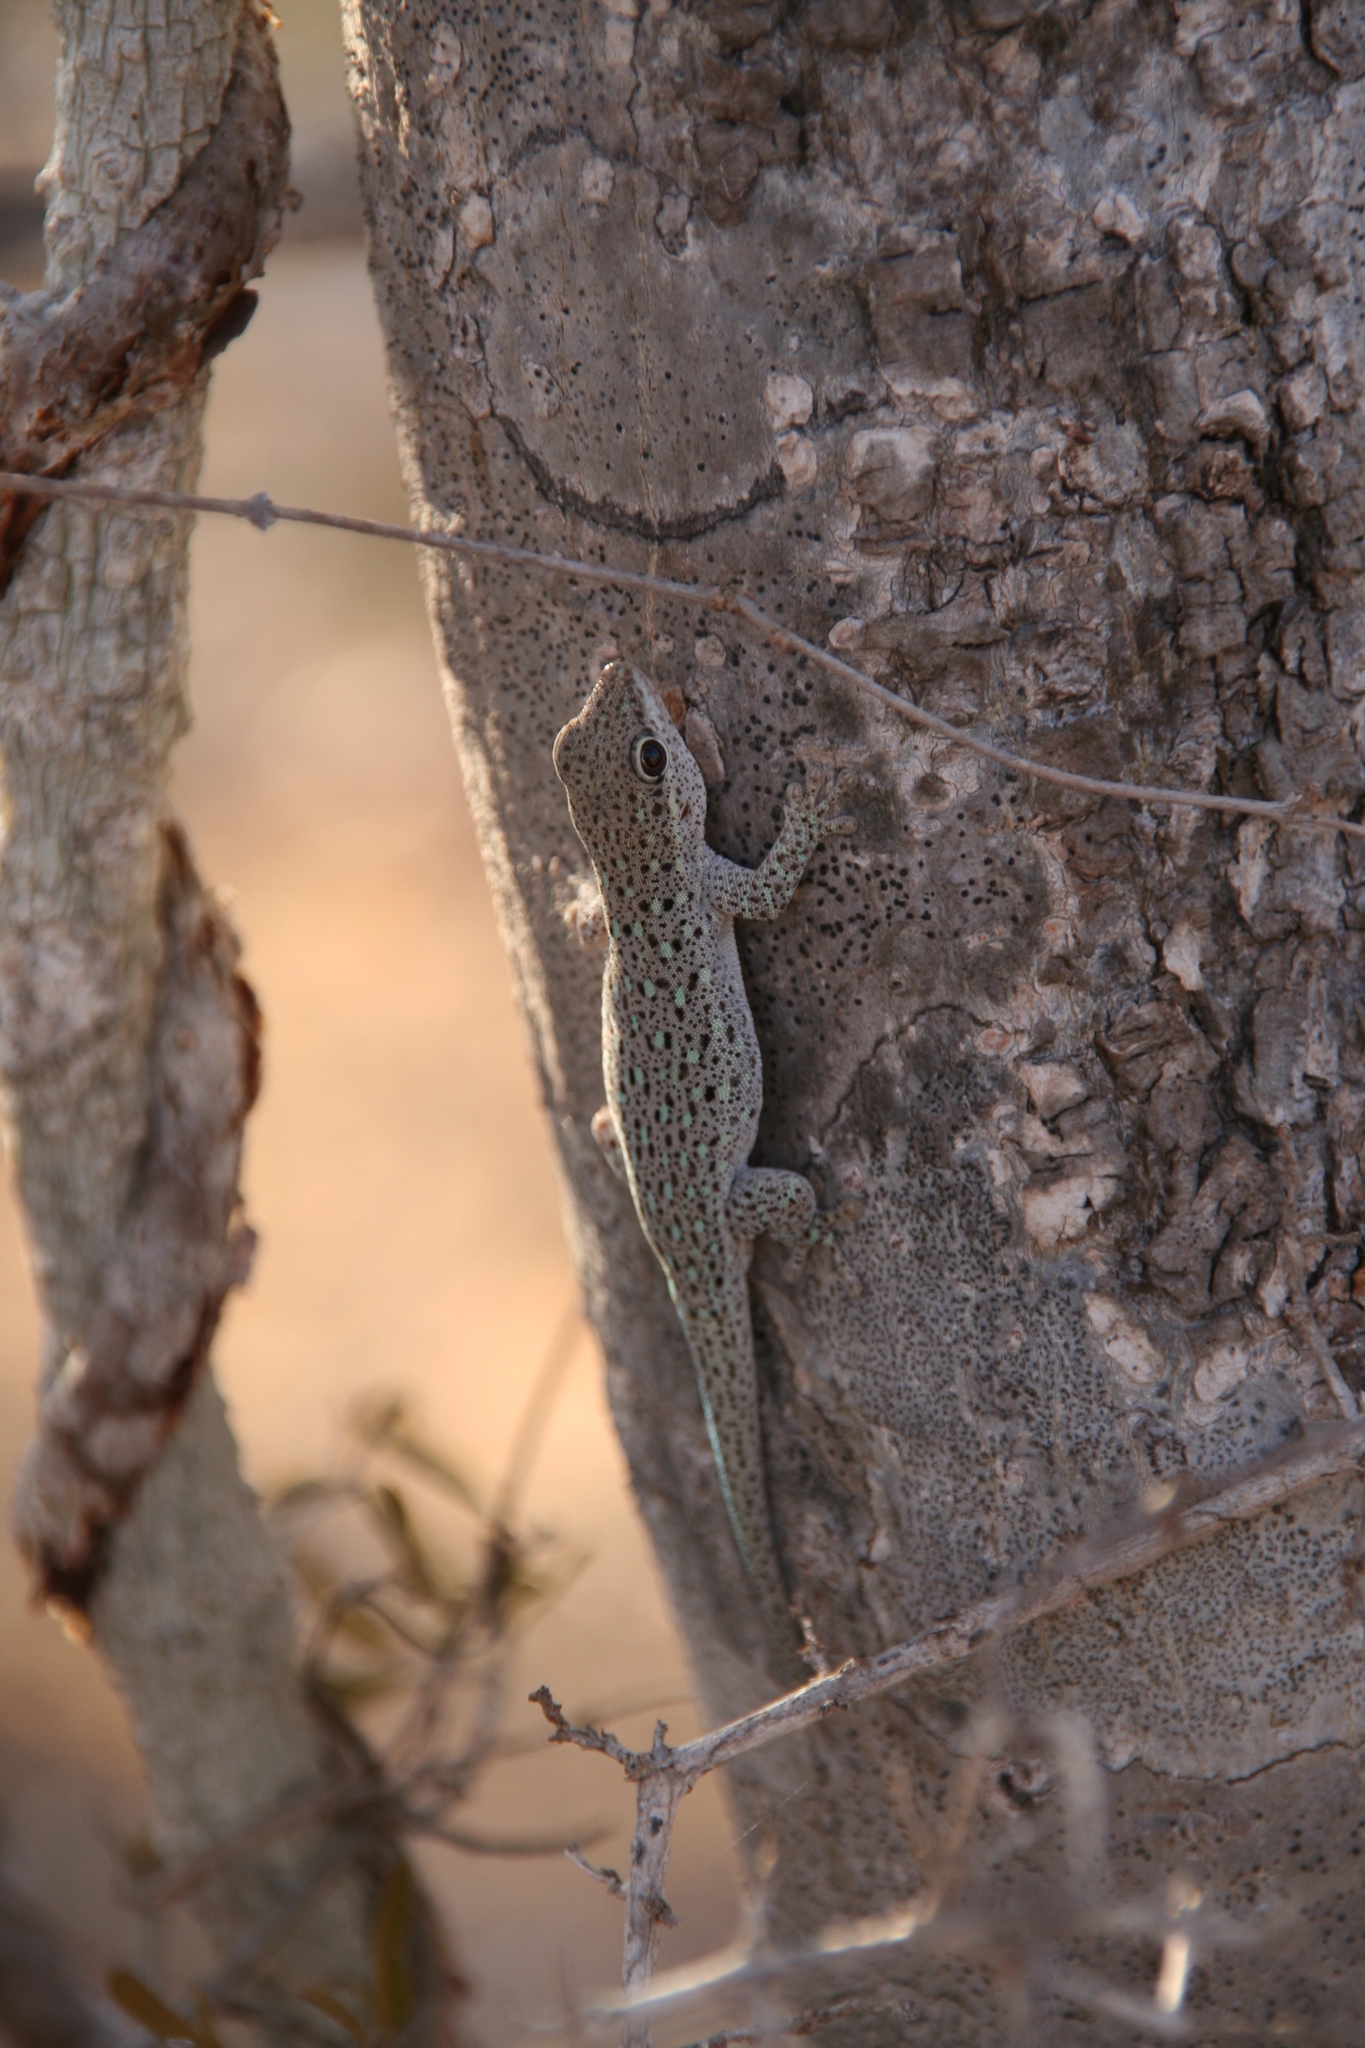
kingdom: Animalia
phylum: Chordata
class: Squamata
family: Gekkonidae
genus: Phelsuma
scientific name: Phelsuma breviceps
